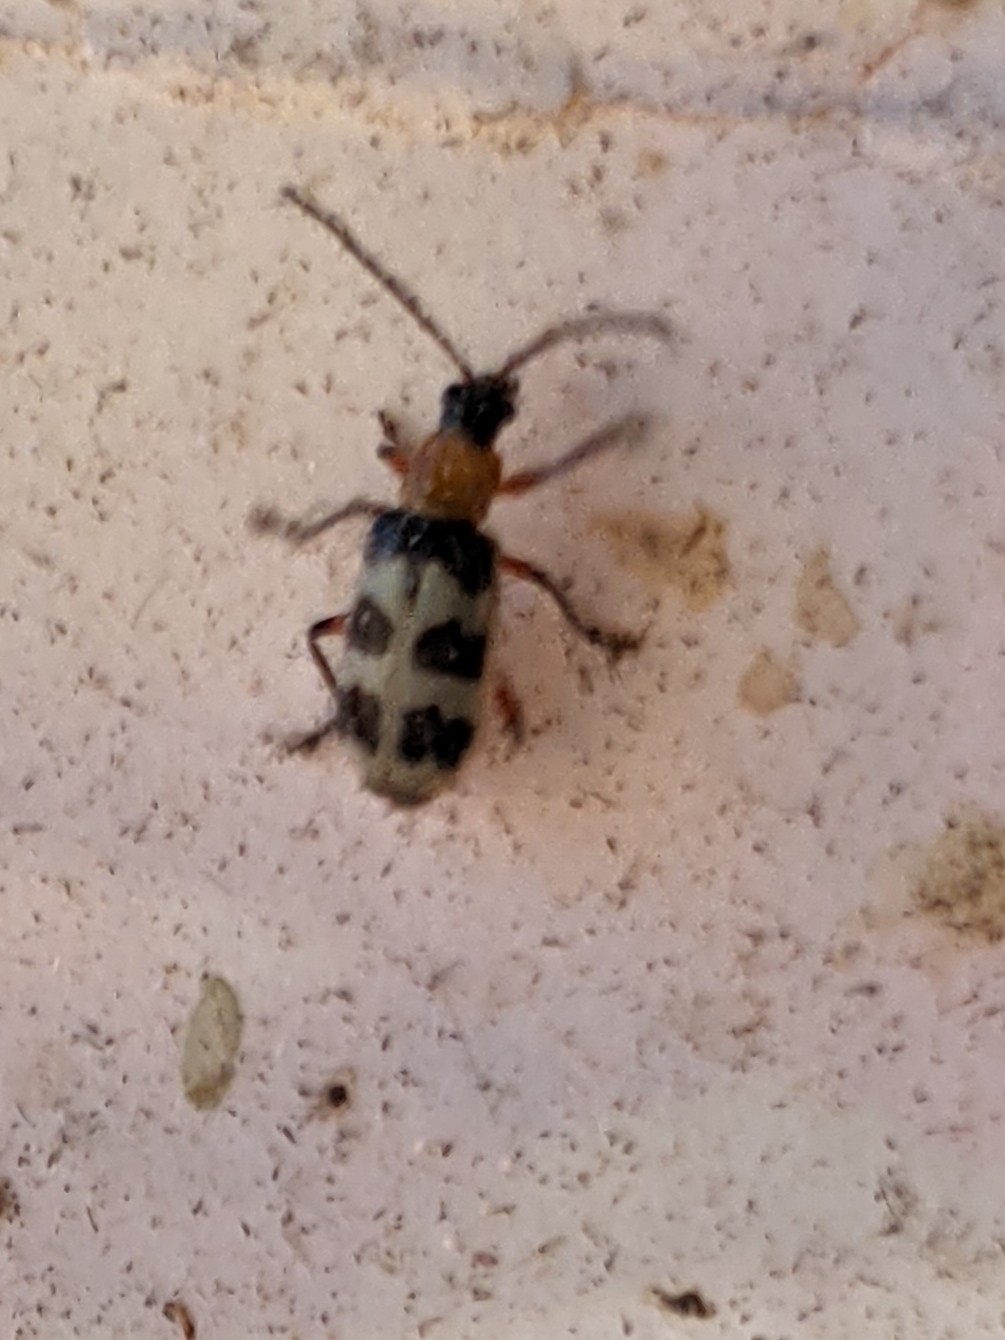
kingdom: Animalia
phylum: Arthropoda
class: Insecta
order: Coleoptera
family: Chrysomelidae
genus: Paranapiacaba
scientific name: Paranapiacaba tricincta
